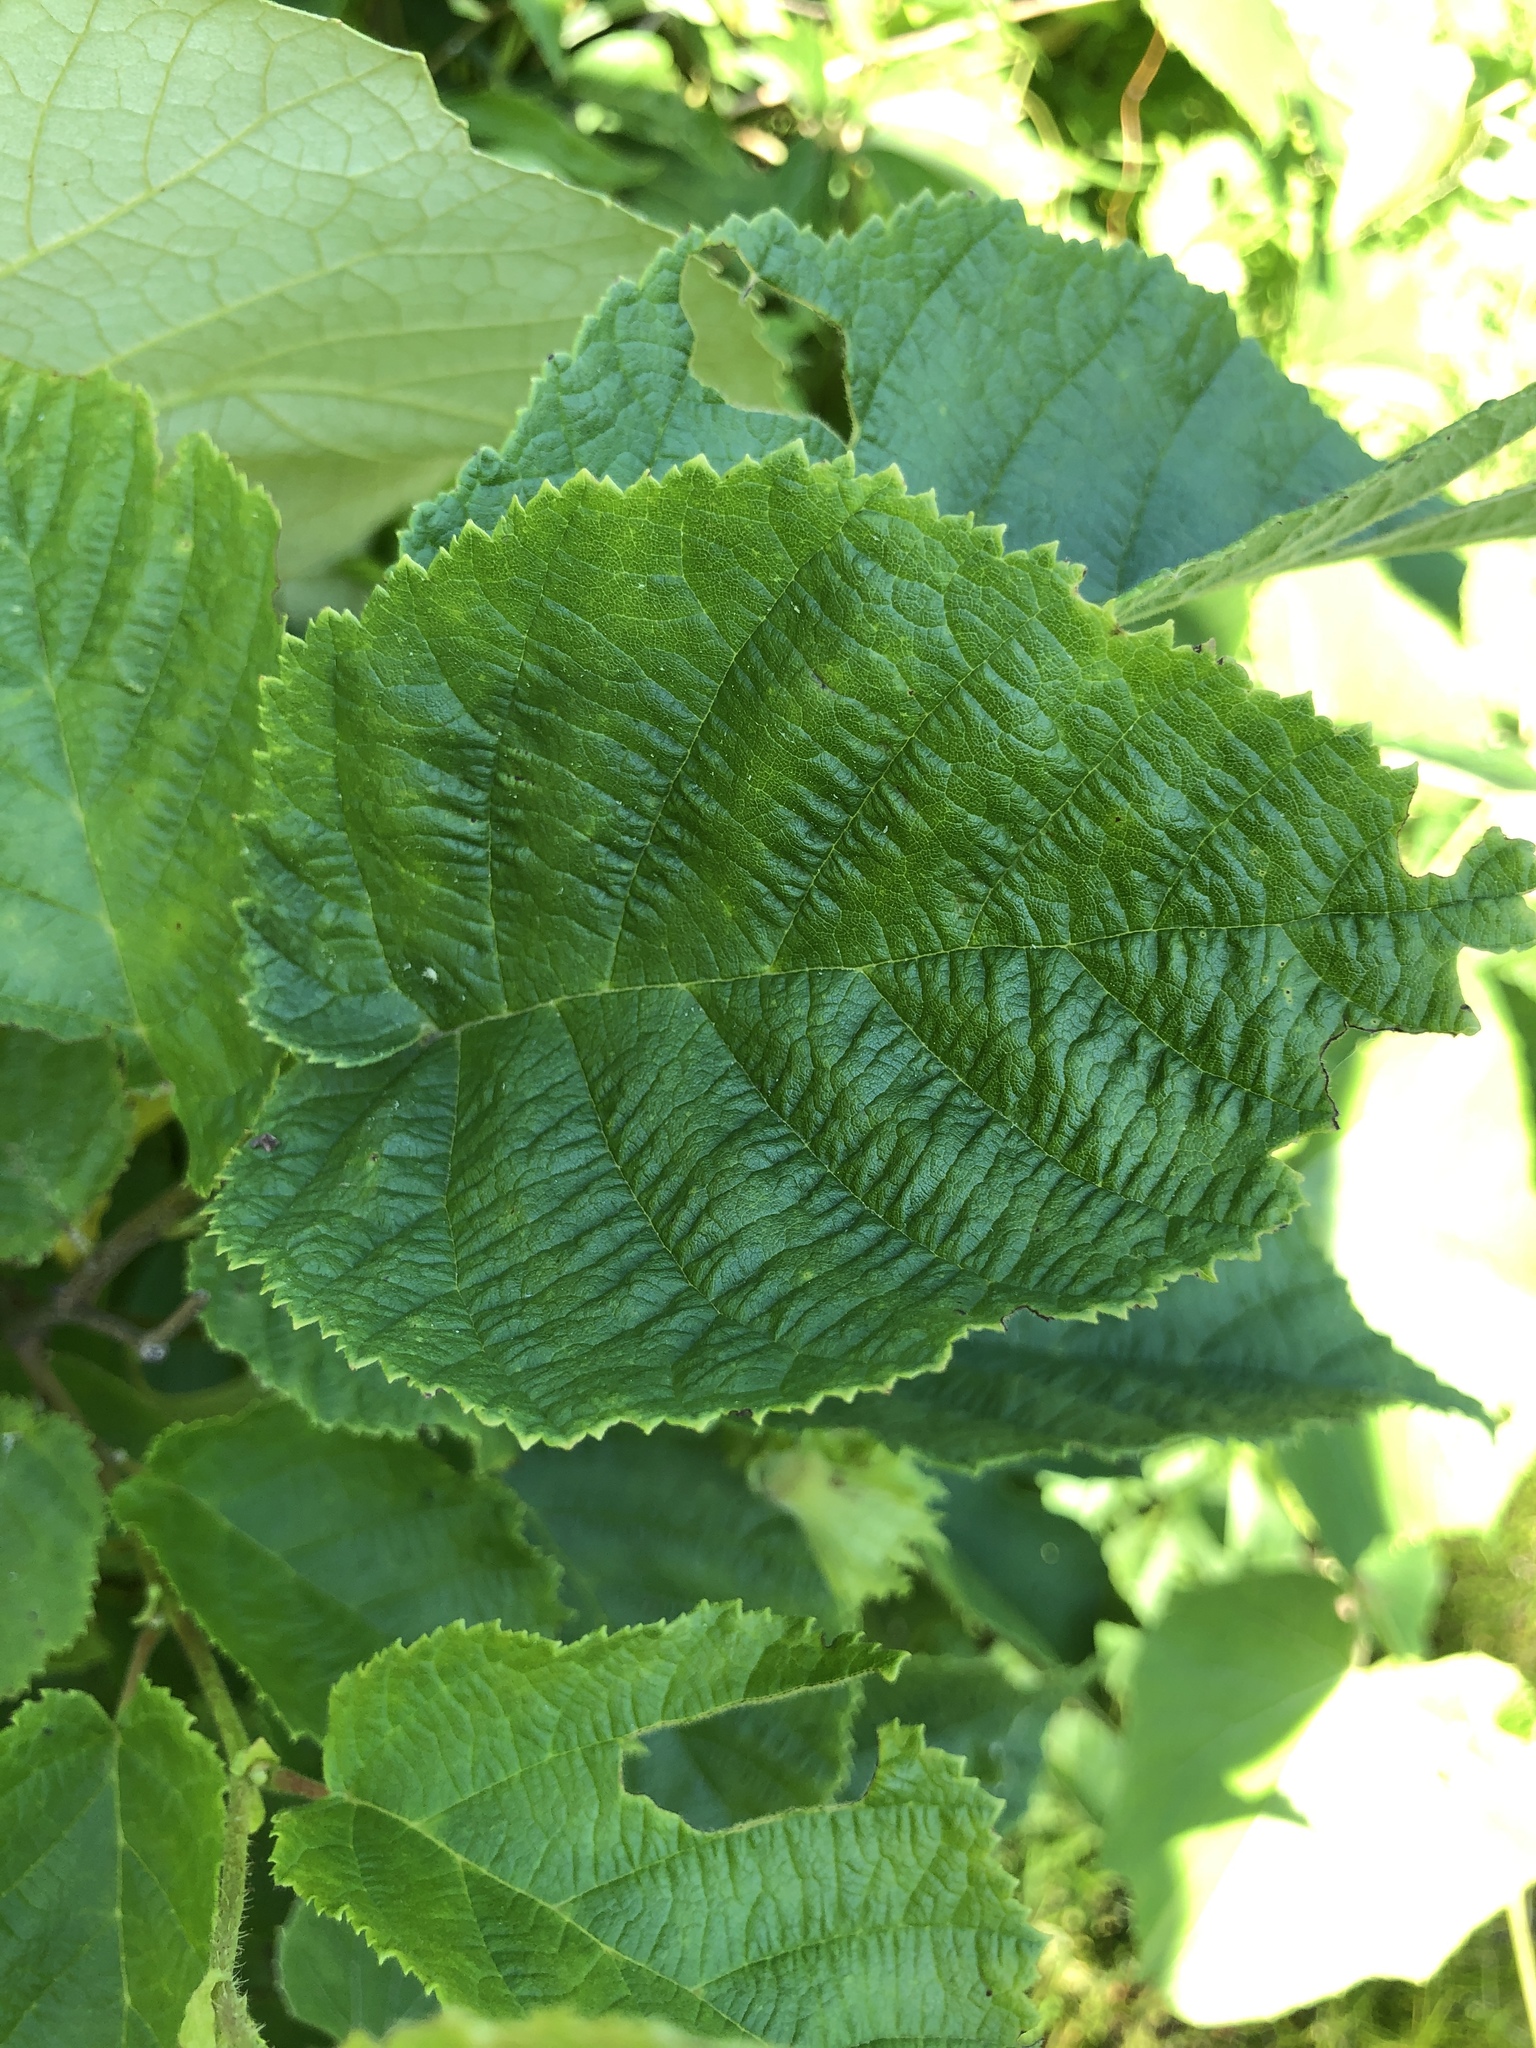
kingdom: Plantae
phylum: Tracheophyta
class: Magnoliopsida
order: Fagales
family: Betulaceae
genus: Corylus
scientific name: Corylus americana
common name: American hazel
